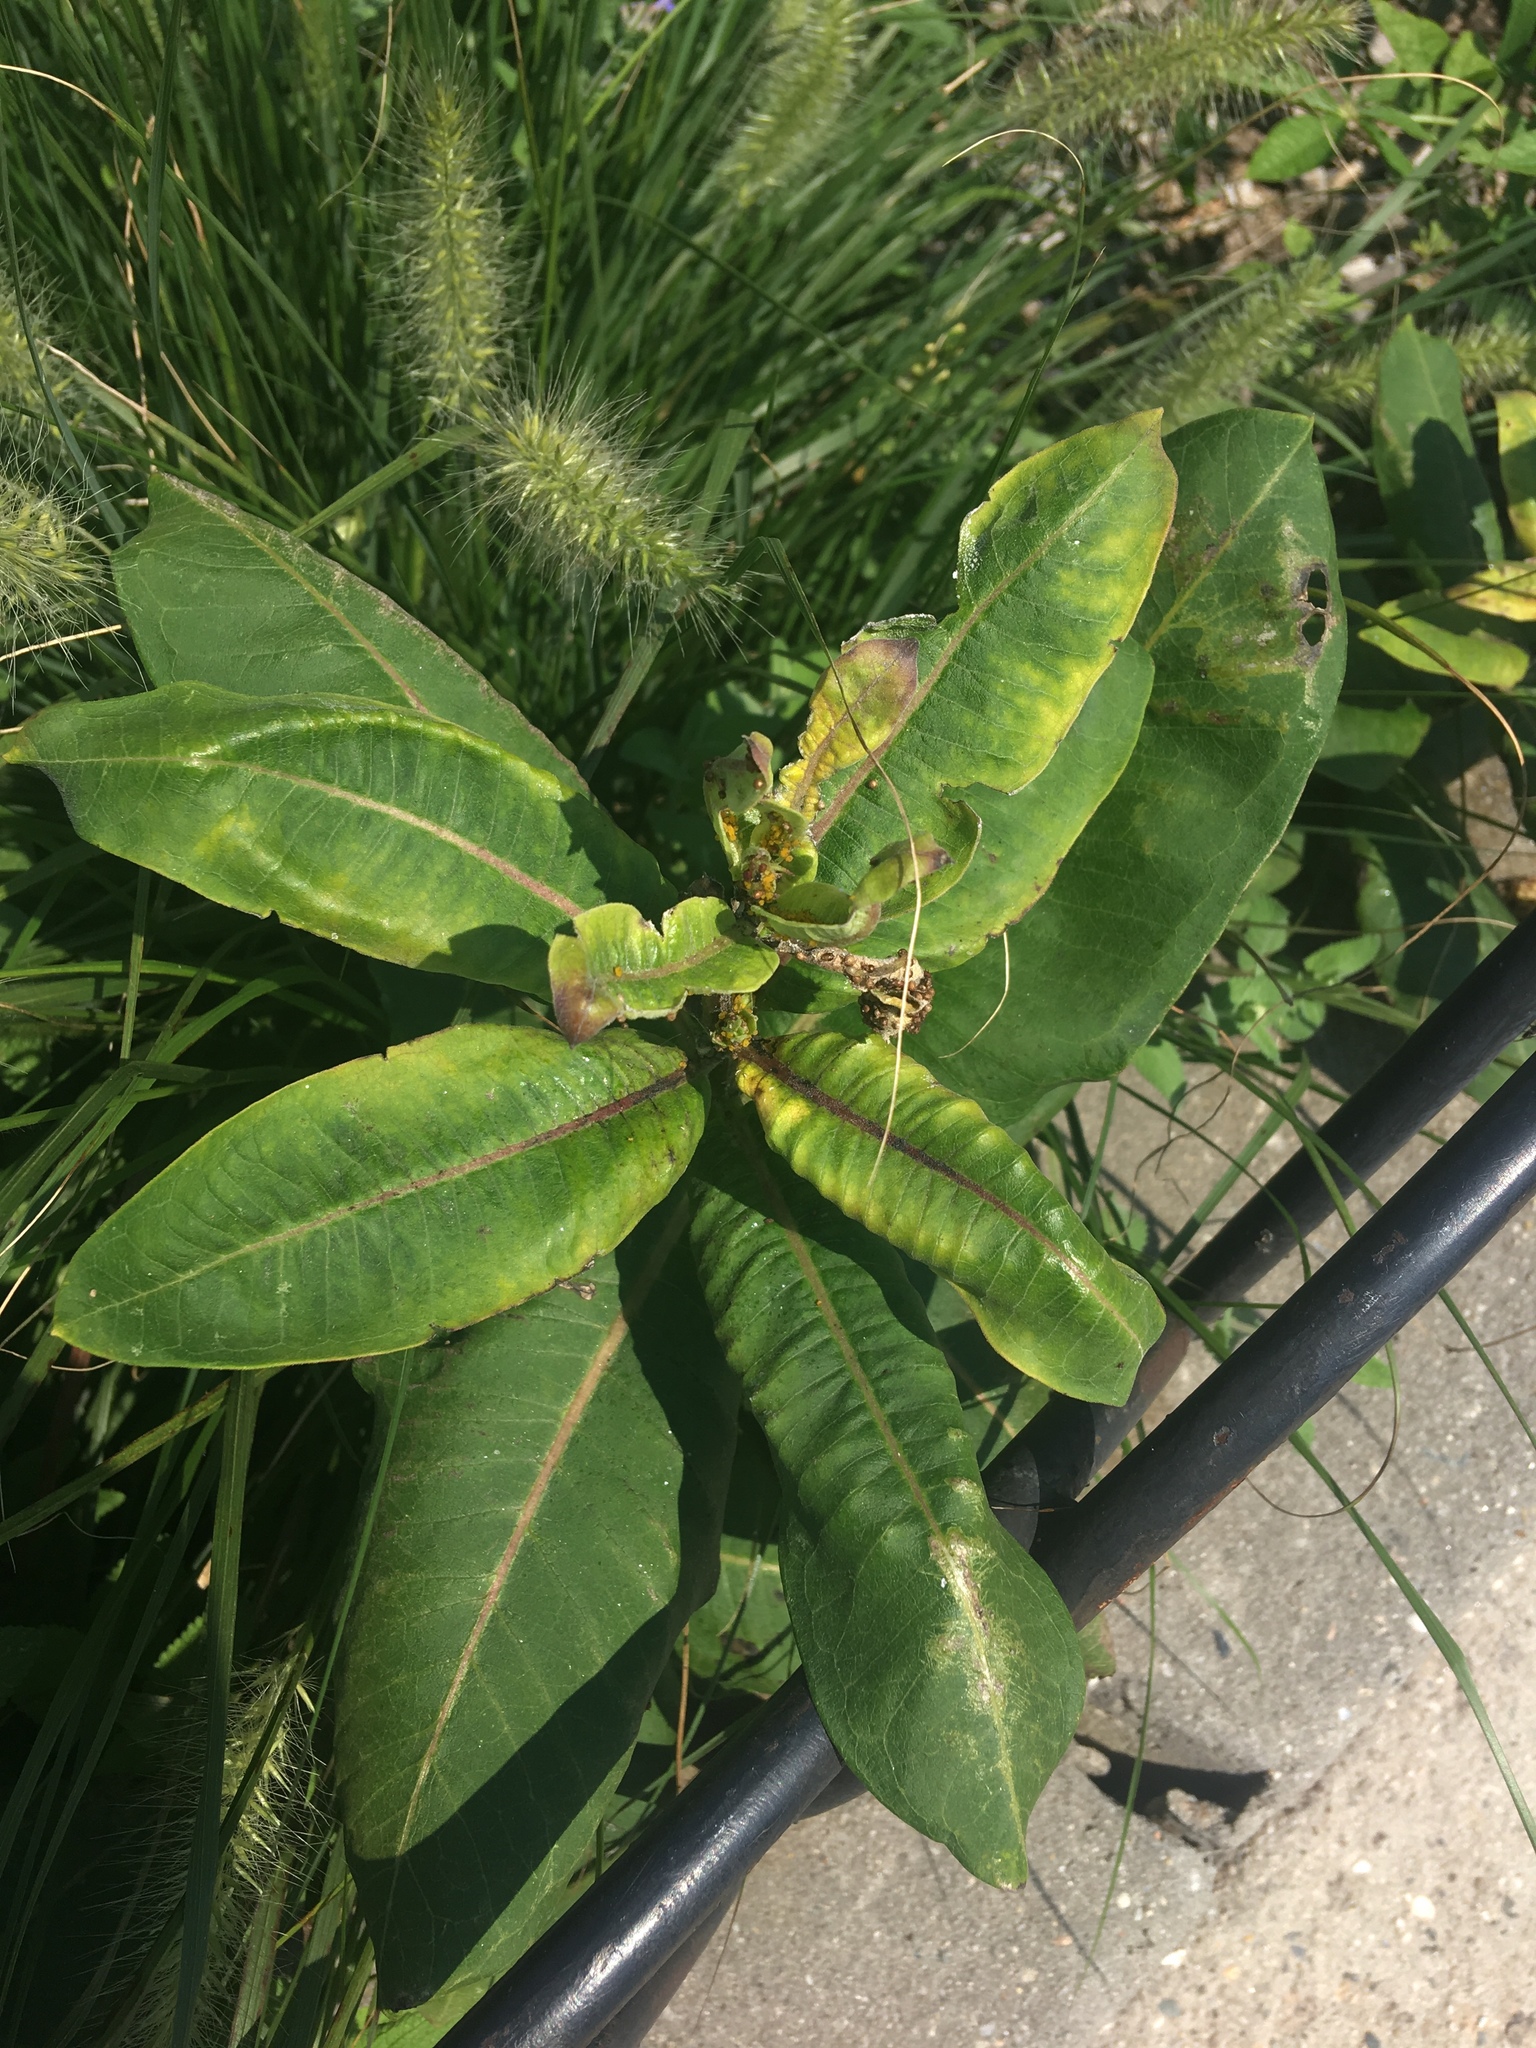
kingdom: Plantae
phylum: Tracheophyta
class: Magnoliopsida
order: Gentianales
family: Apocynaceae
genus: Asclepias
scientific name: Asclepias syriaca
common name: Common milkweed
